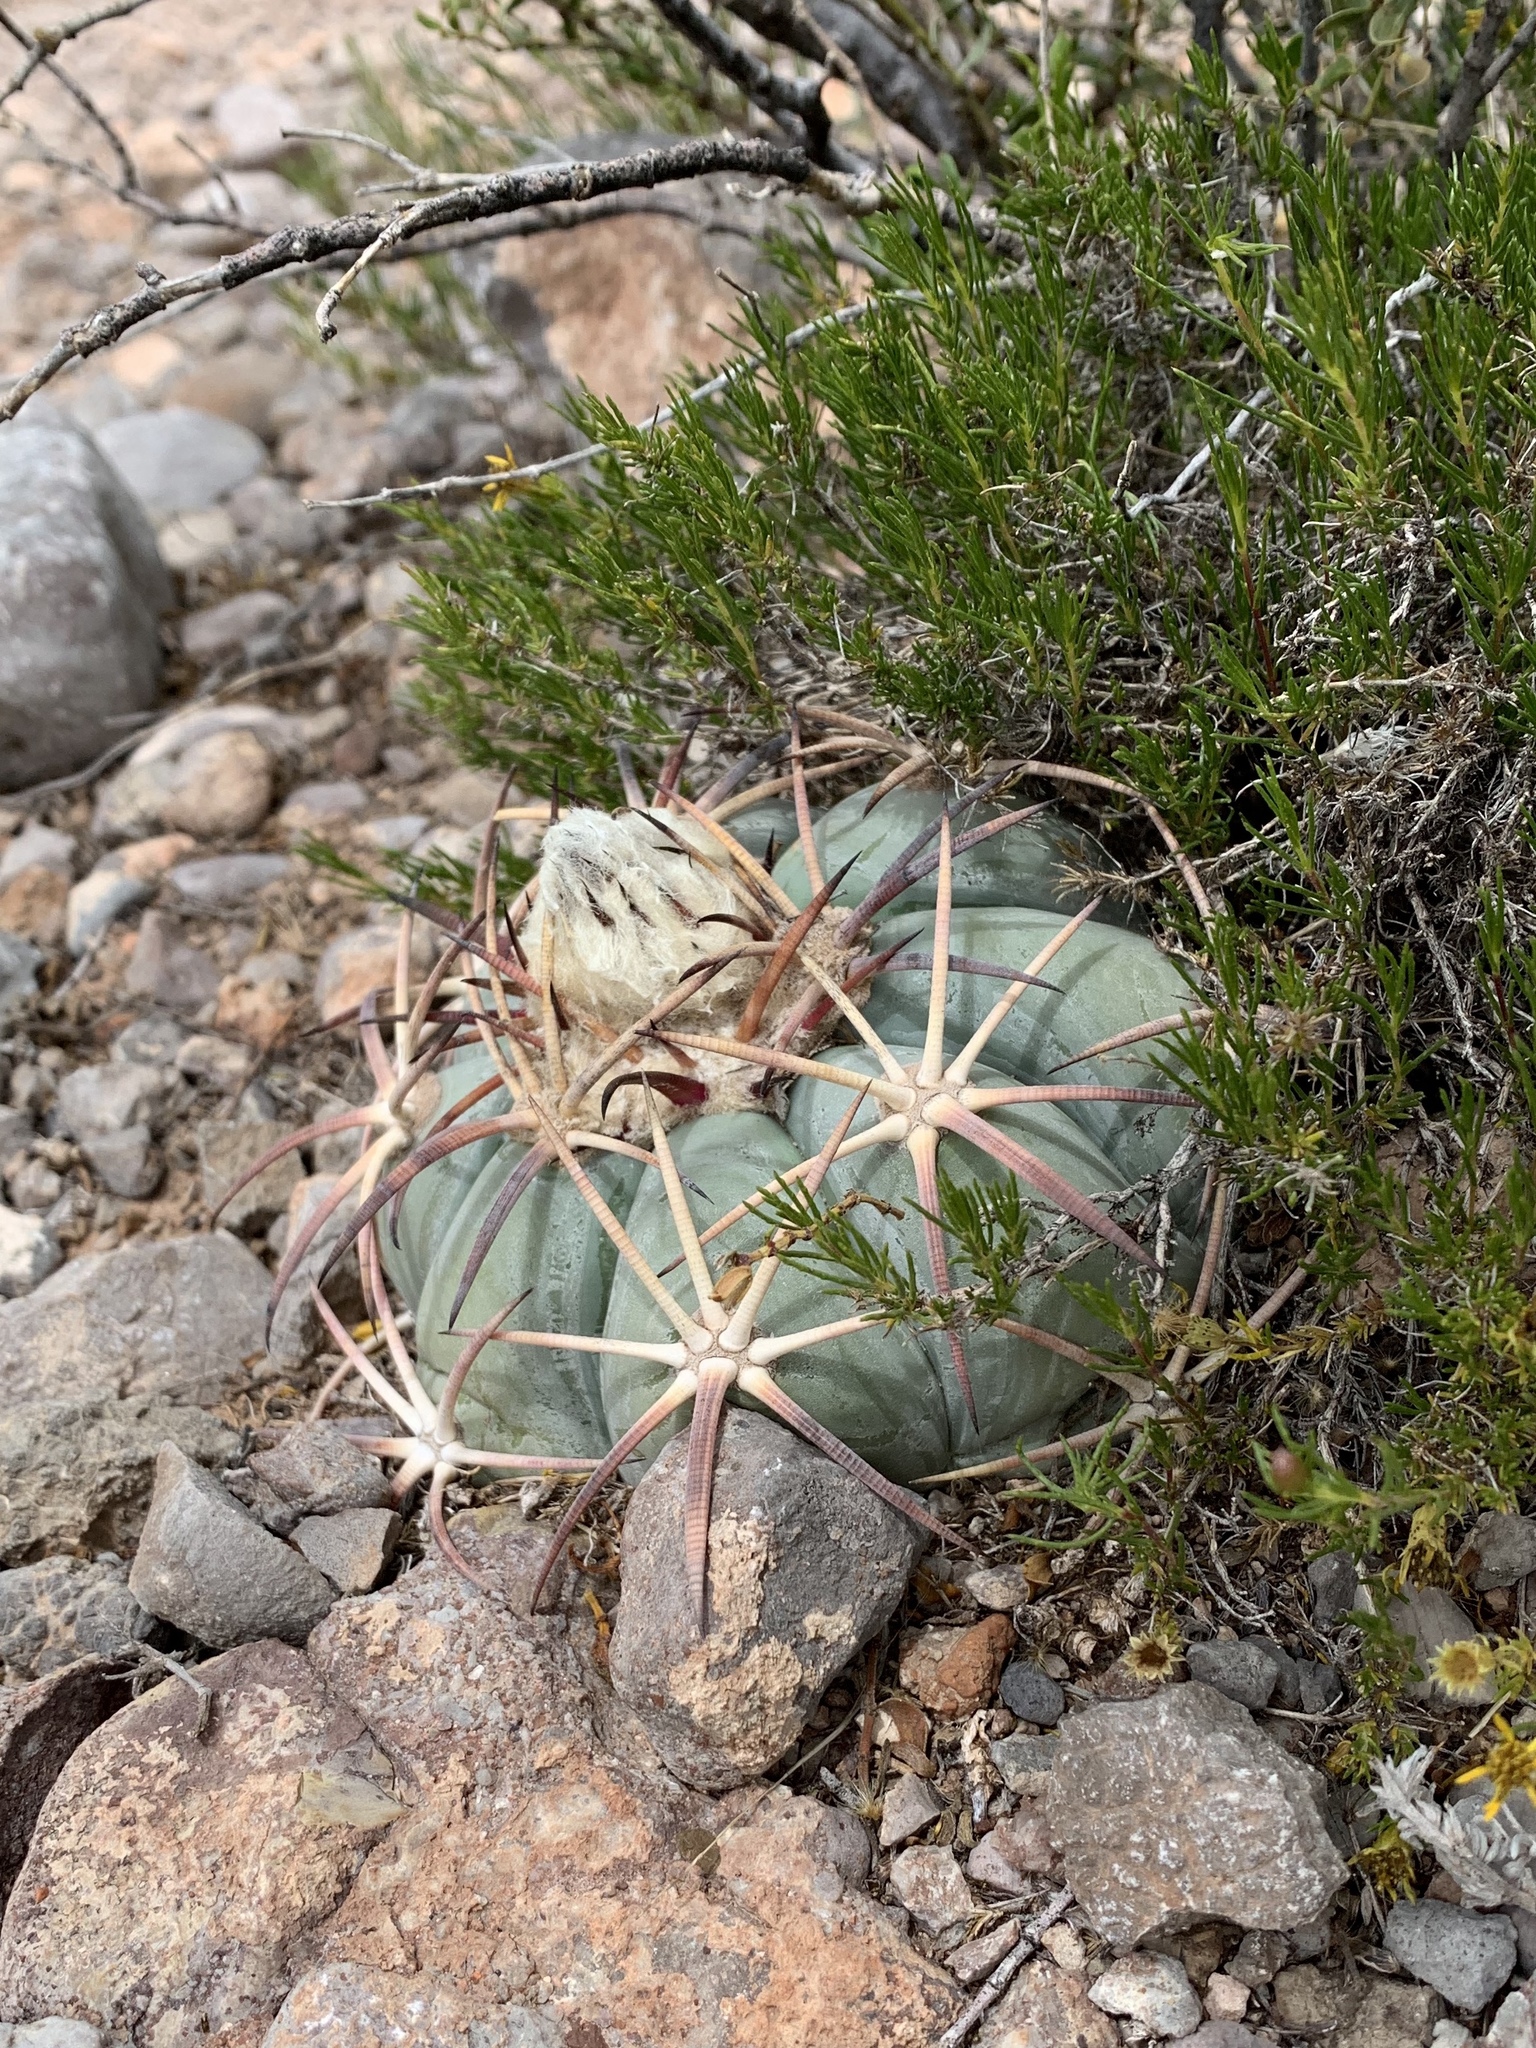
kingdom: Plantae
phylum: Tracheophyta
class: Magnoliopsida
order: Caryophyllales
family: Cactaceae
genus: Echinocactus
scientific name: Echinocactus horizonthalonius
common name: Devilshead
